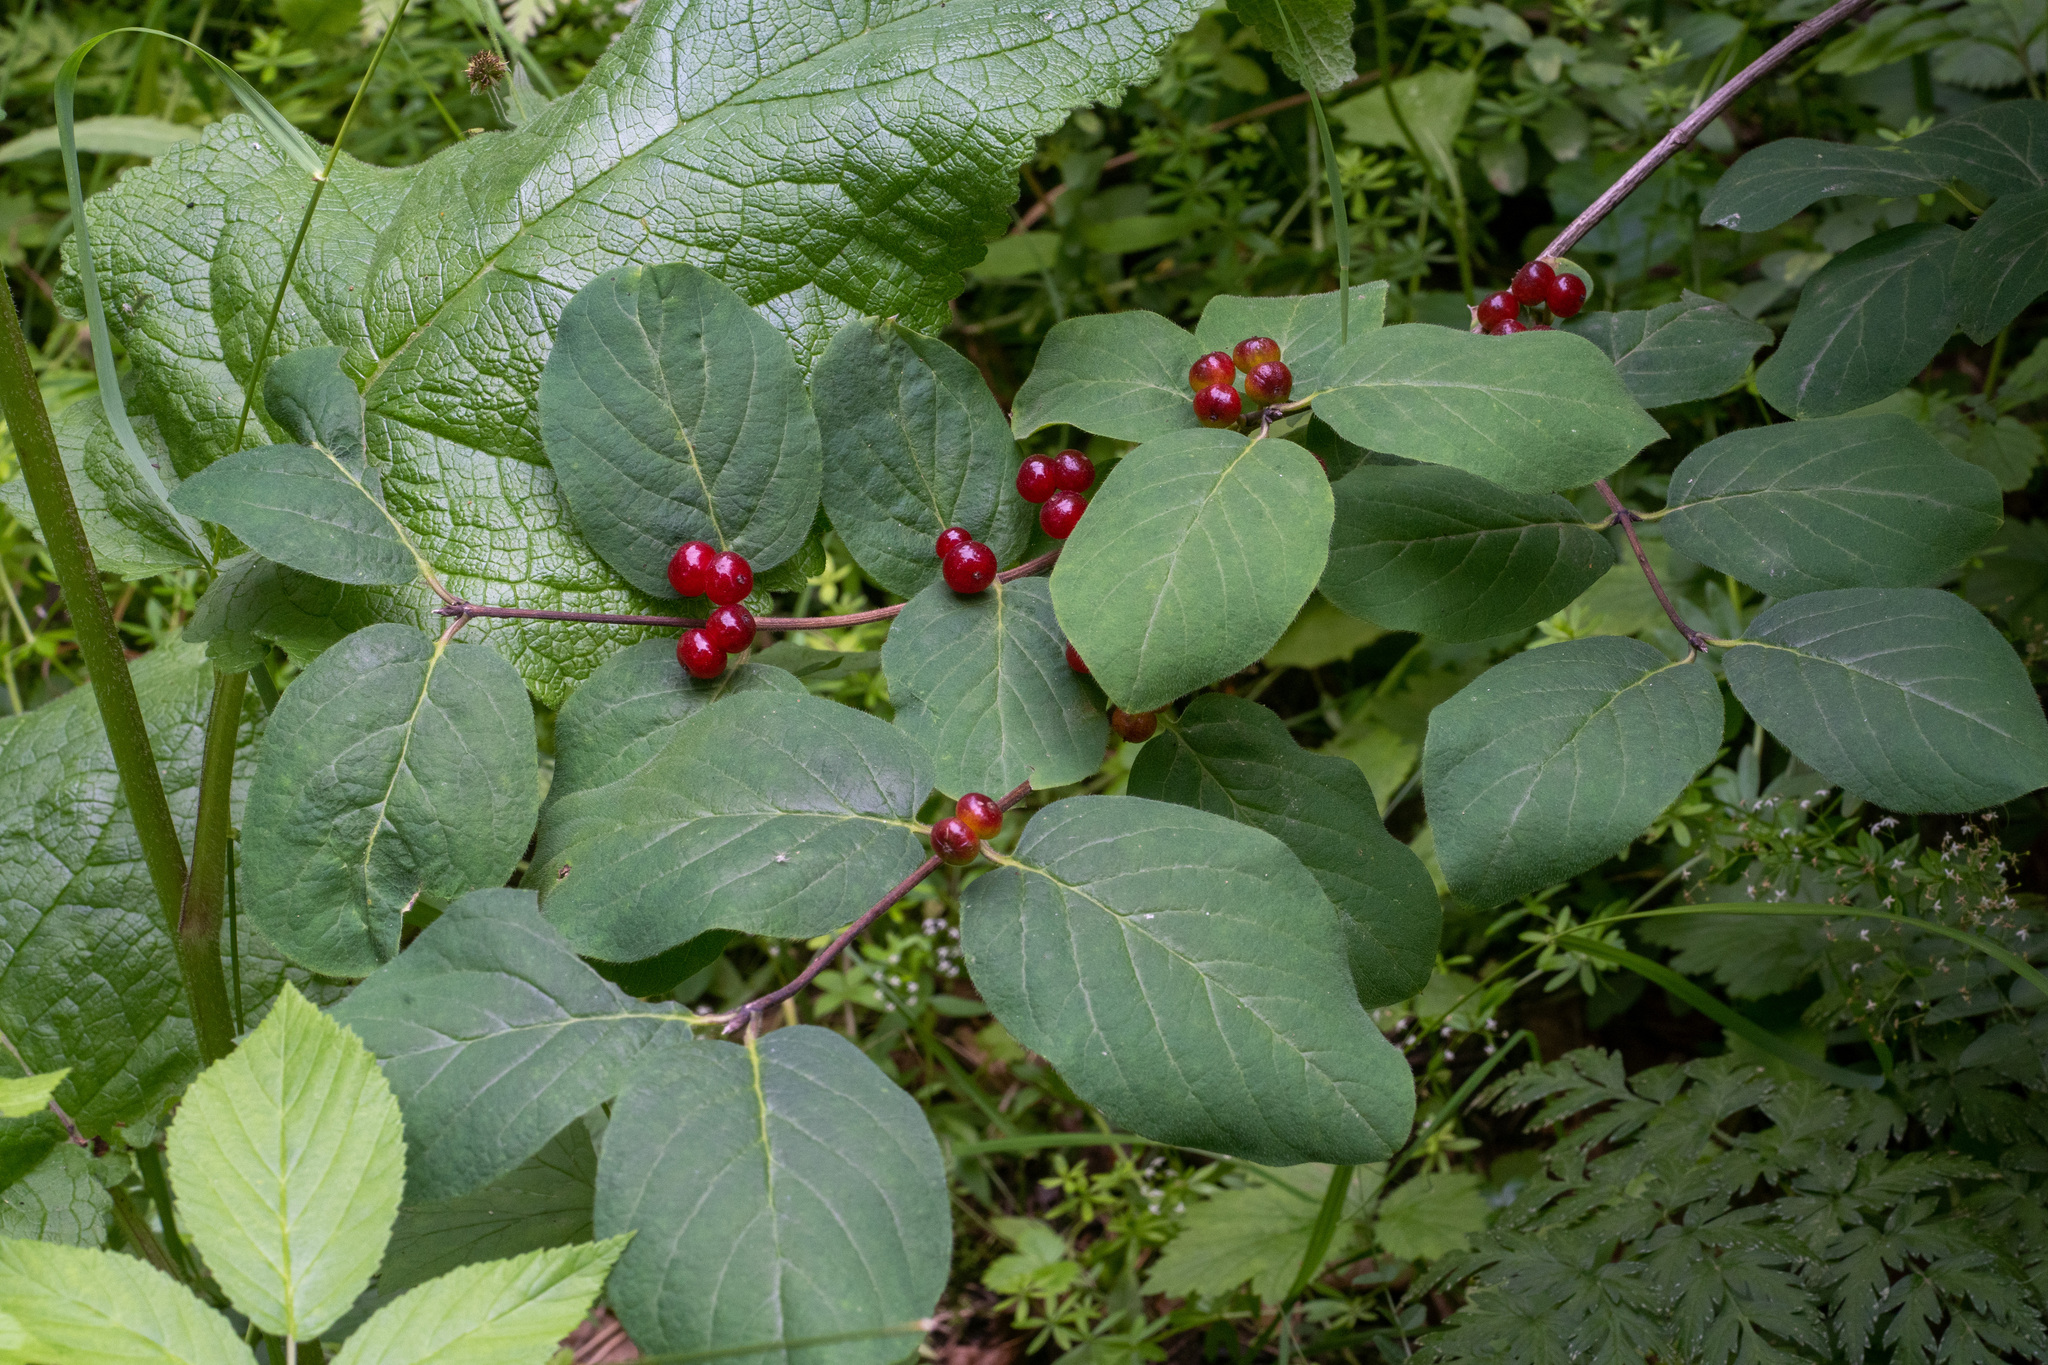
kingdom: Plantae
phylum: Tracheophyta
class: Magnoliopsida
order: Dipsacales
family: Caprifoliaceae
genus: Lonicera
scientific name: Lonicera xylosteum
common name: Fly honeysuckle
